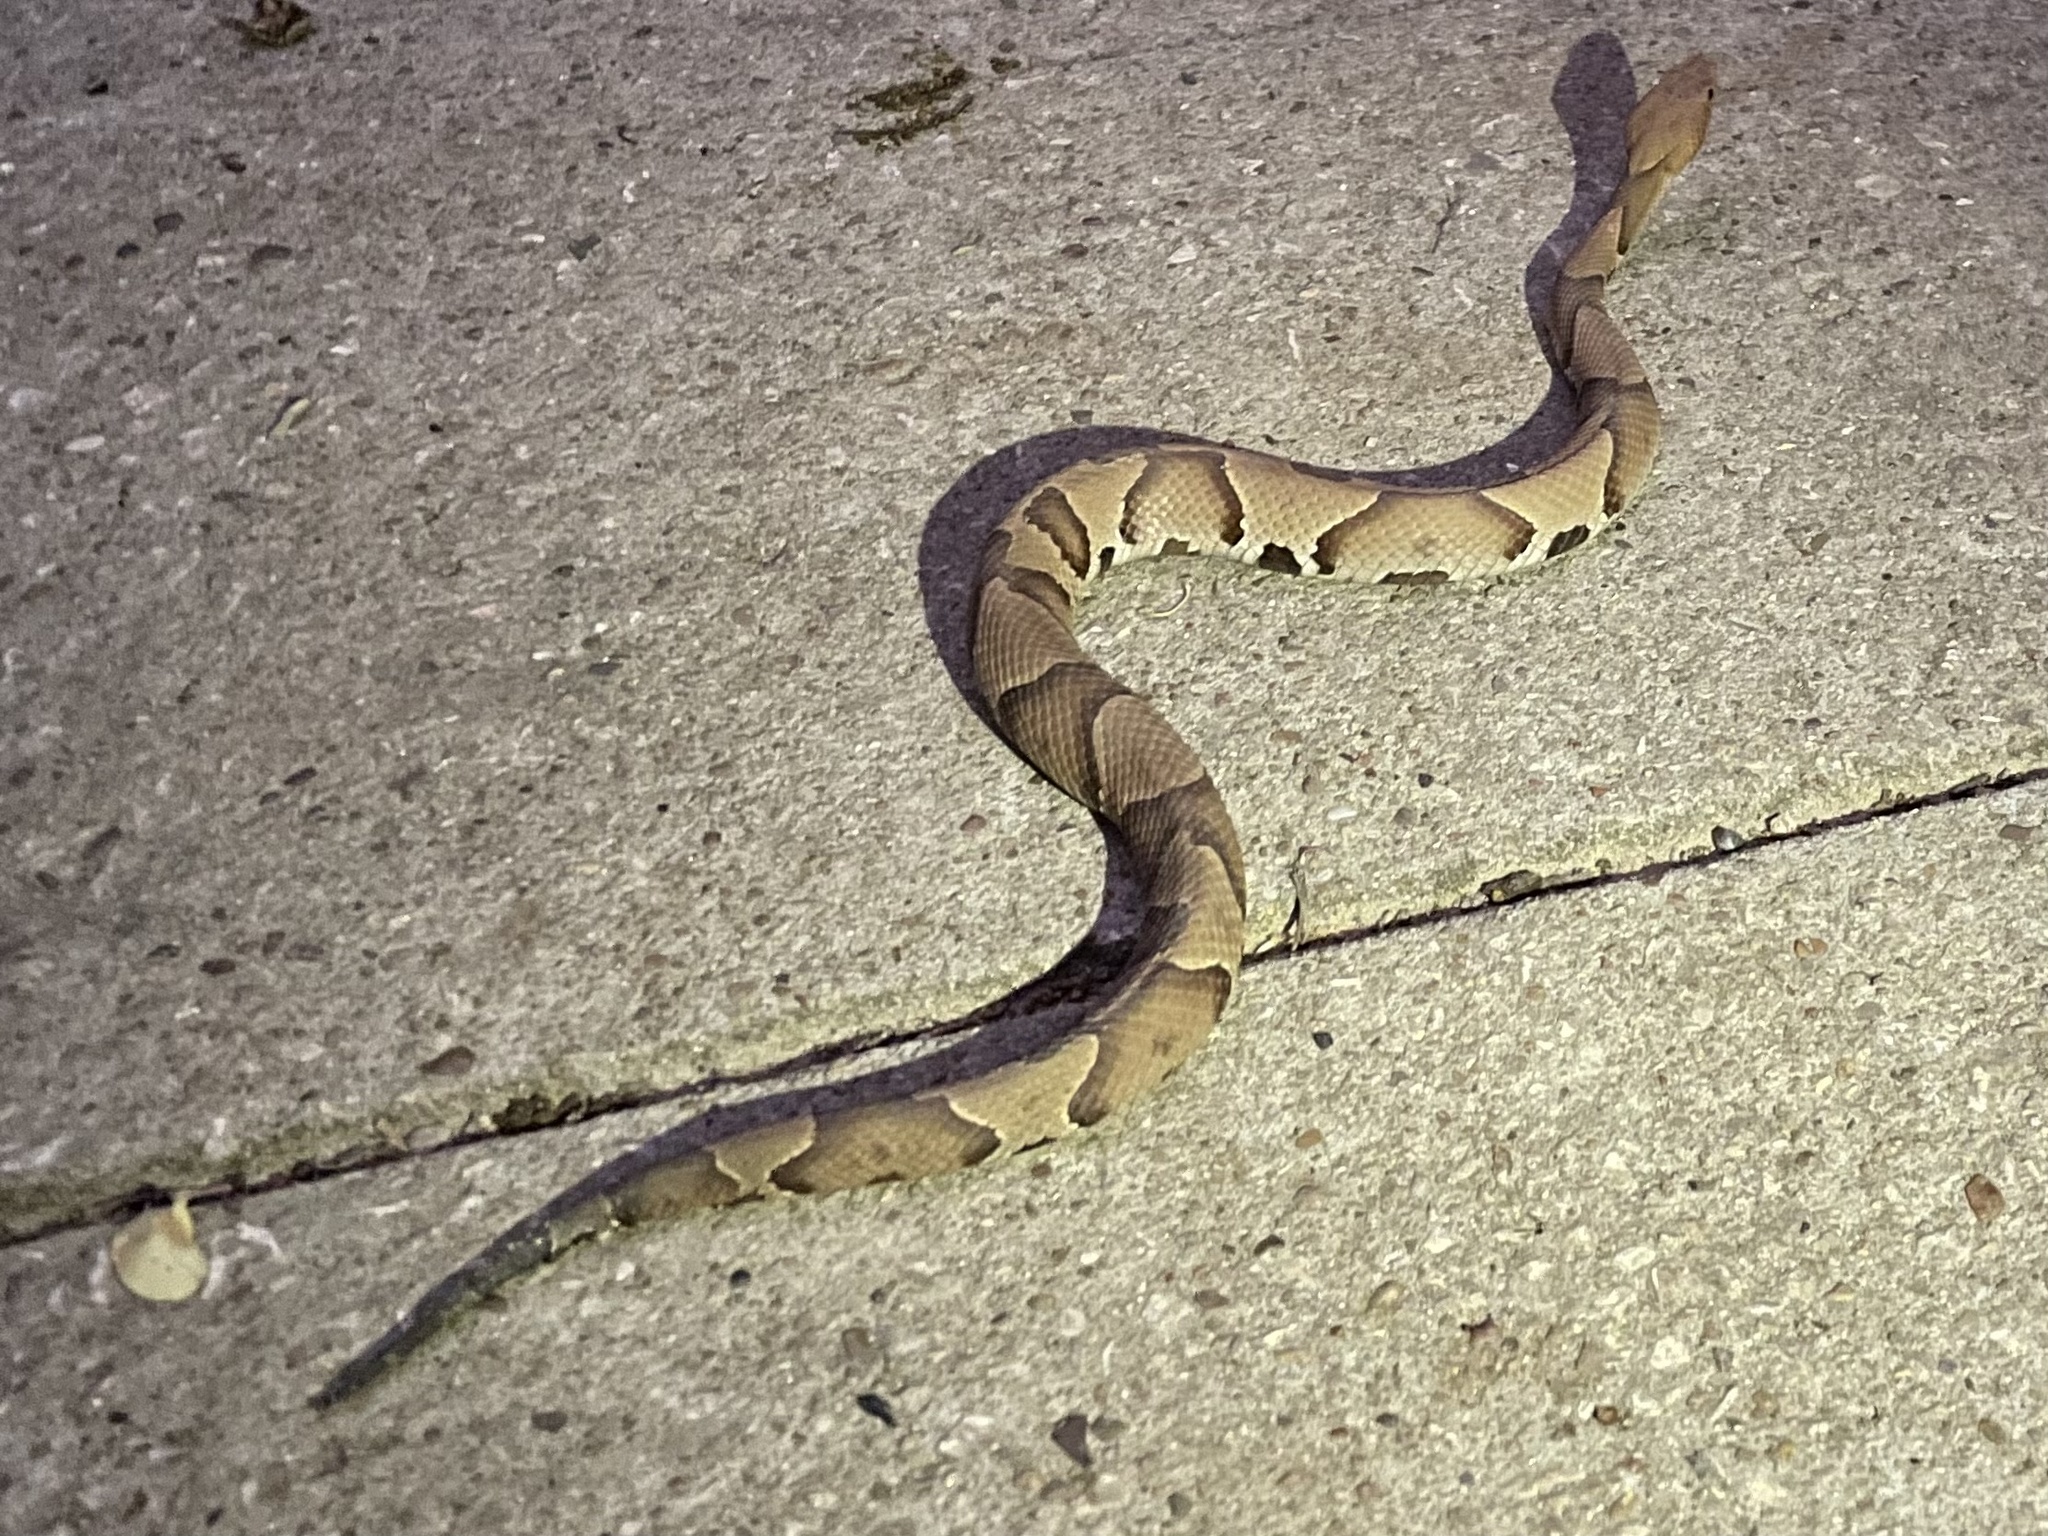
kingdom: Animalia
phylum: Chordata
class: Squamata
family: Viperidae
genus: Agkistrodon
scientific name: Agkistrodon contortrix
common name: Northern copperhead
